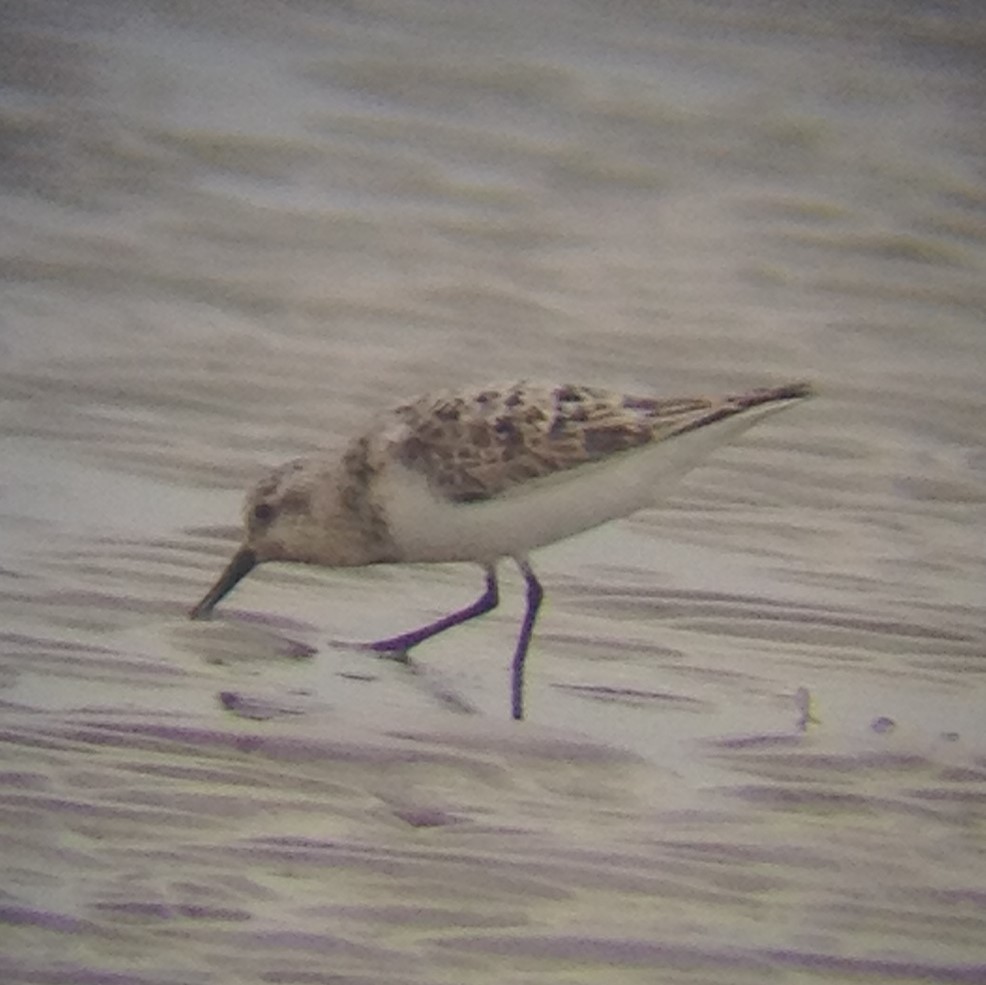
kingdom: Animalia
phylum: Chordata
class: Aves
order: Charadriiformes
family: Scolopacidae
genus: Calidris
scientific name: Calidris alba
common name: Sanderling
